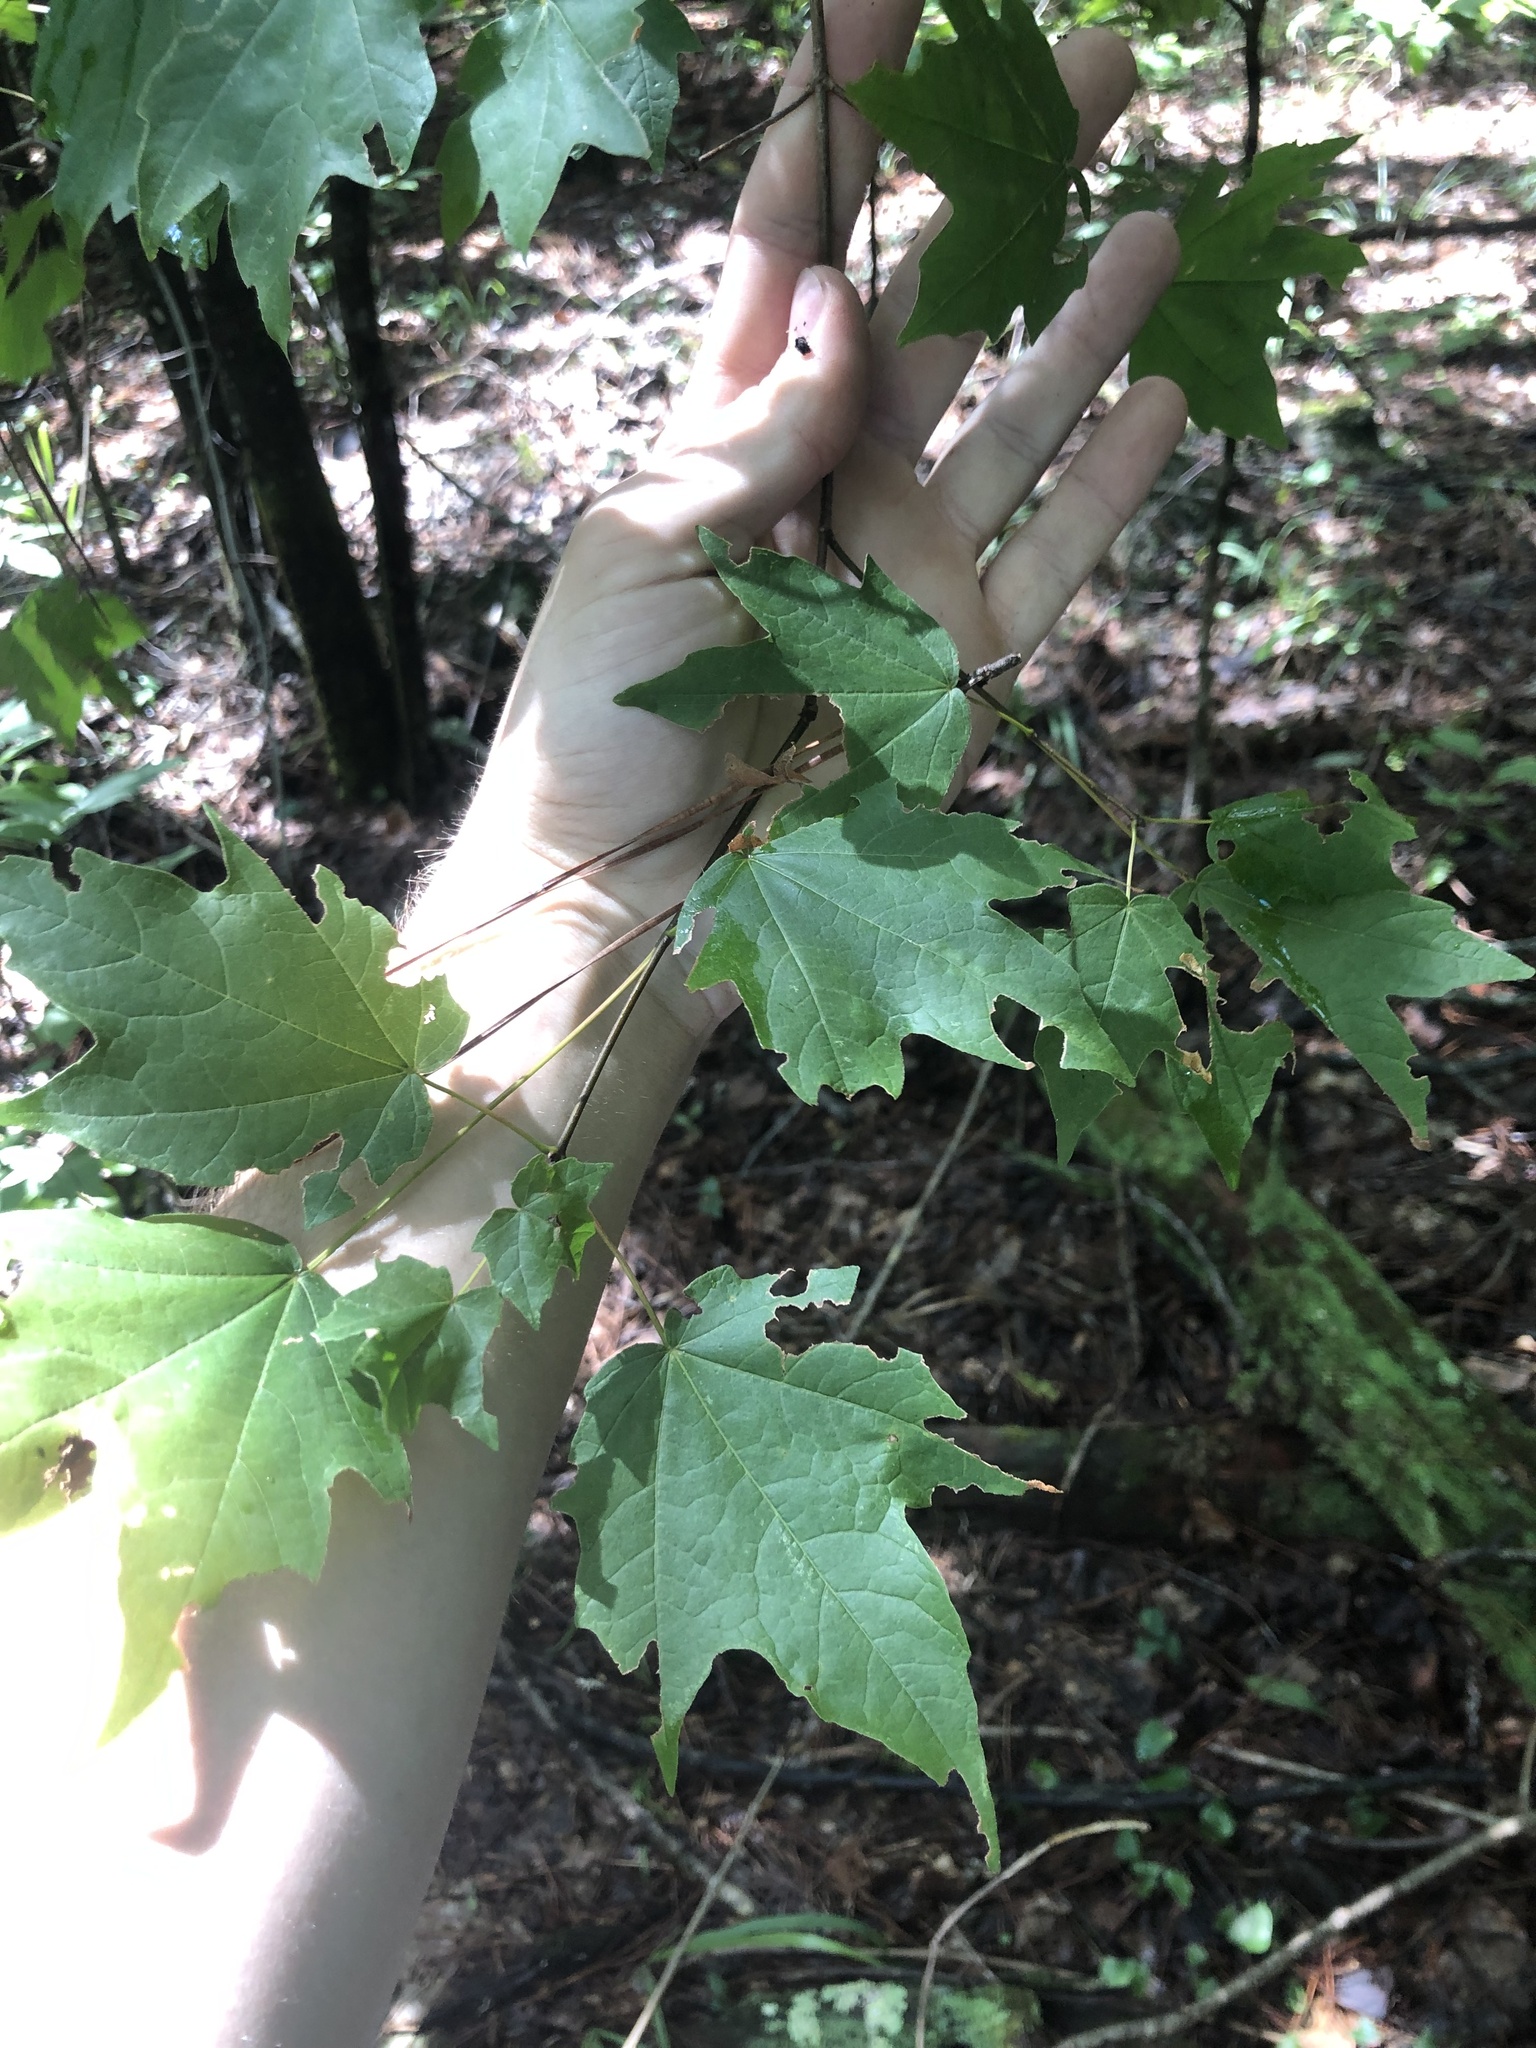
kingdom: Plantae
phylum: Tracheophyta
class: Magnoliopsida
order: Sapindales
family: Sapindaceae
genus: Acer
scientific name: Acer leucoderme
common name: Chalk maple
